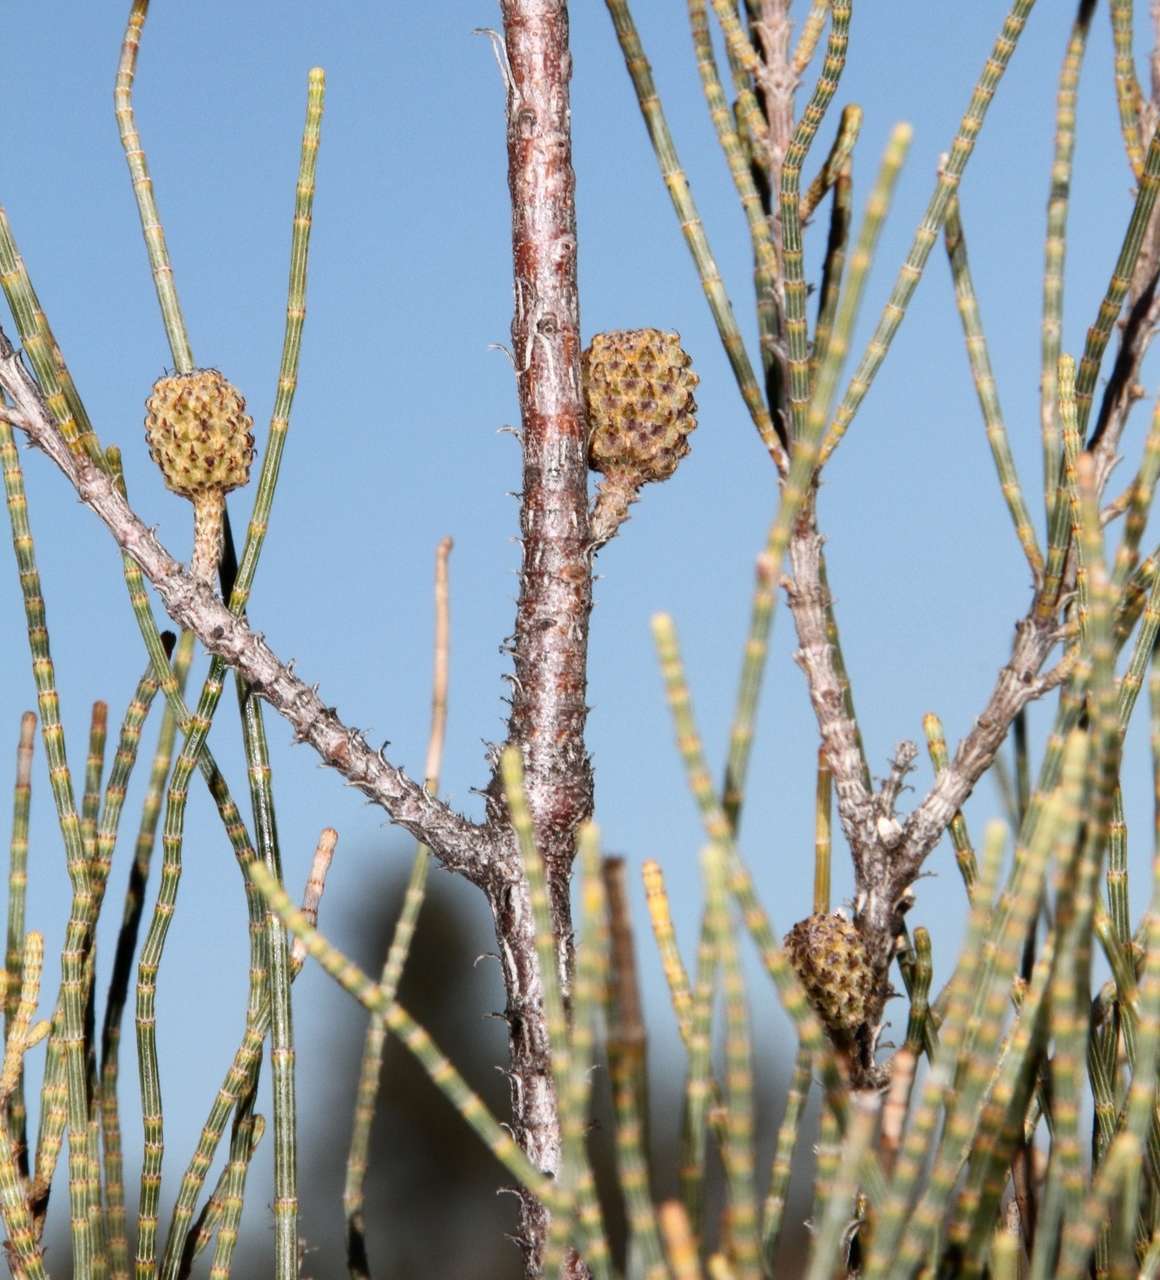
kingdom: Plantae
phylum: Tracheophyta
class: Magnoliopsida
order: Fagales
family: Casuarinaceae
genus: Casuarina
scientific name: Casuarina pauper
